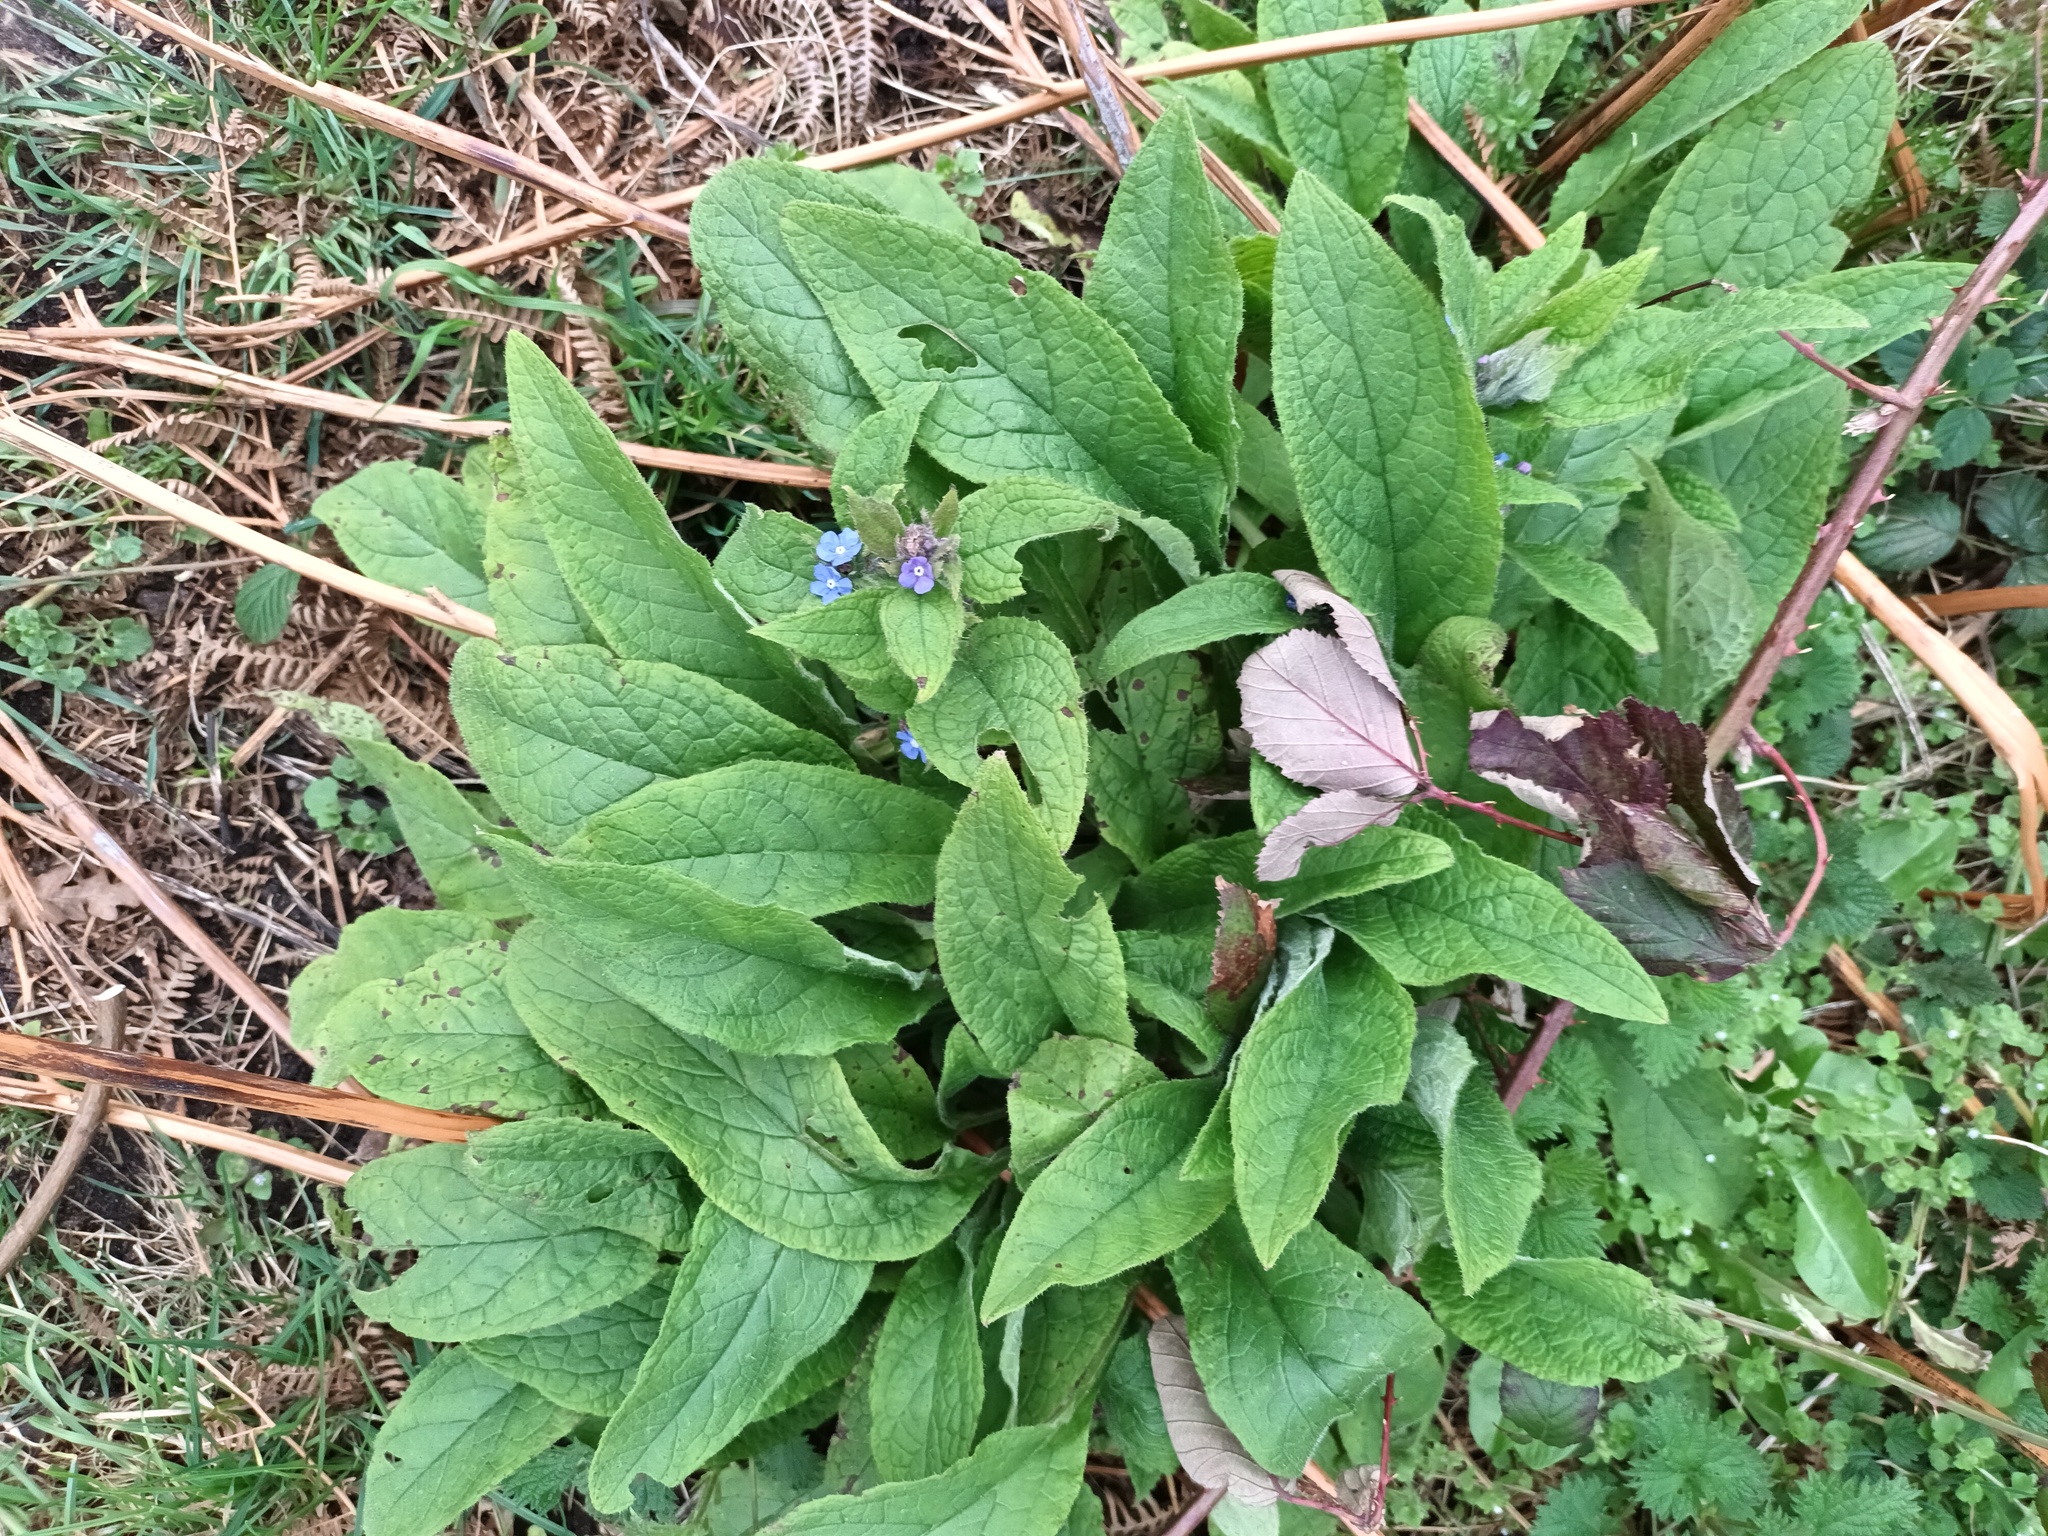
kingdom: Plantae
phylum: Tracheophyta
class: Magnoliopsida
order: Boraginales
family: Boraginaceae
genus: Pentaglottis
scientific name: Pentaglottis sempervirens
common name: Green alkanet
